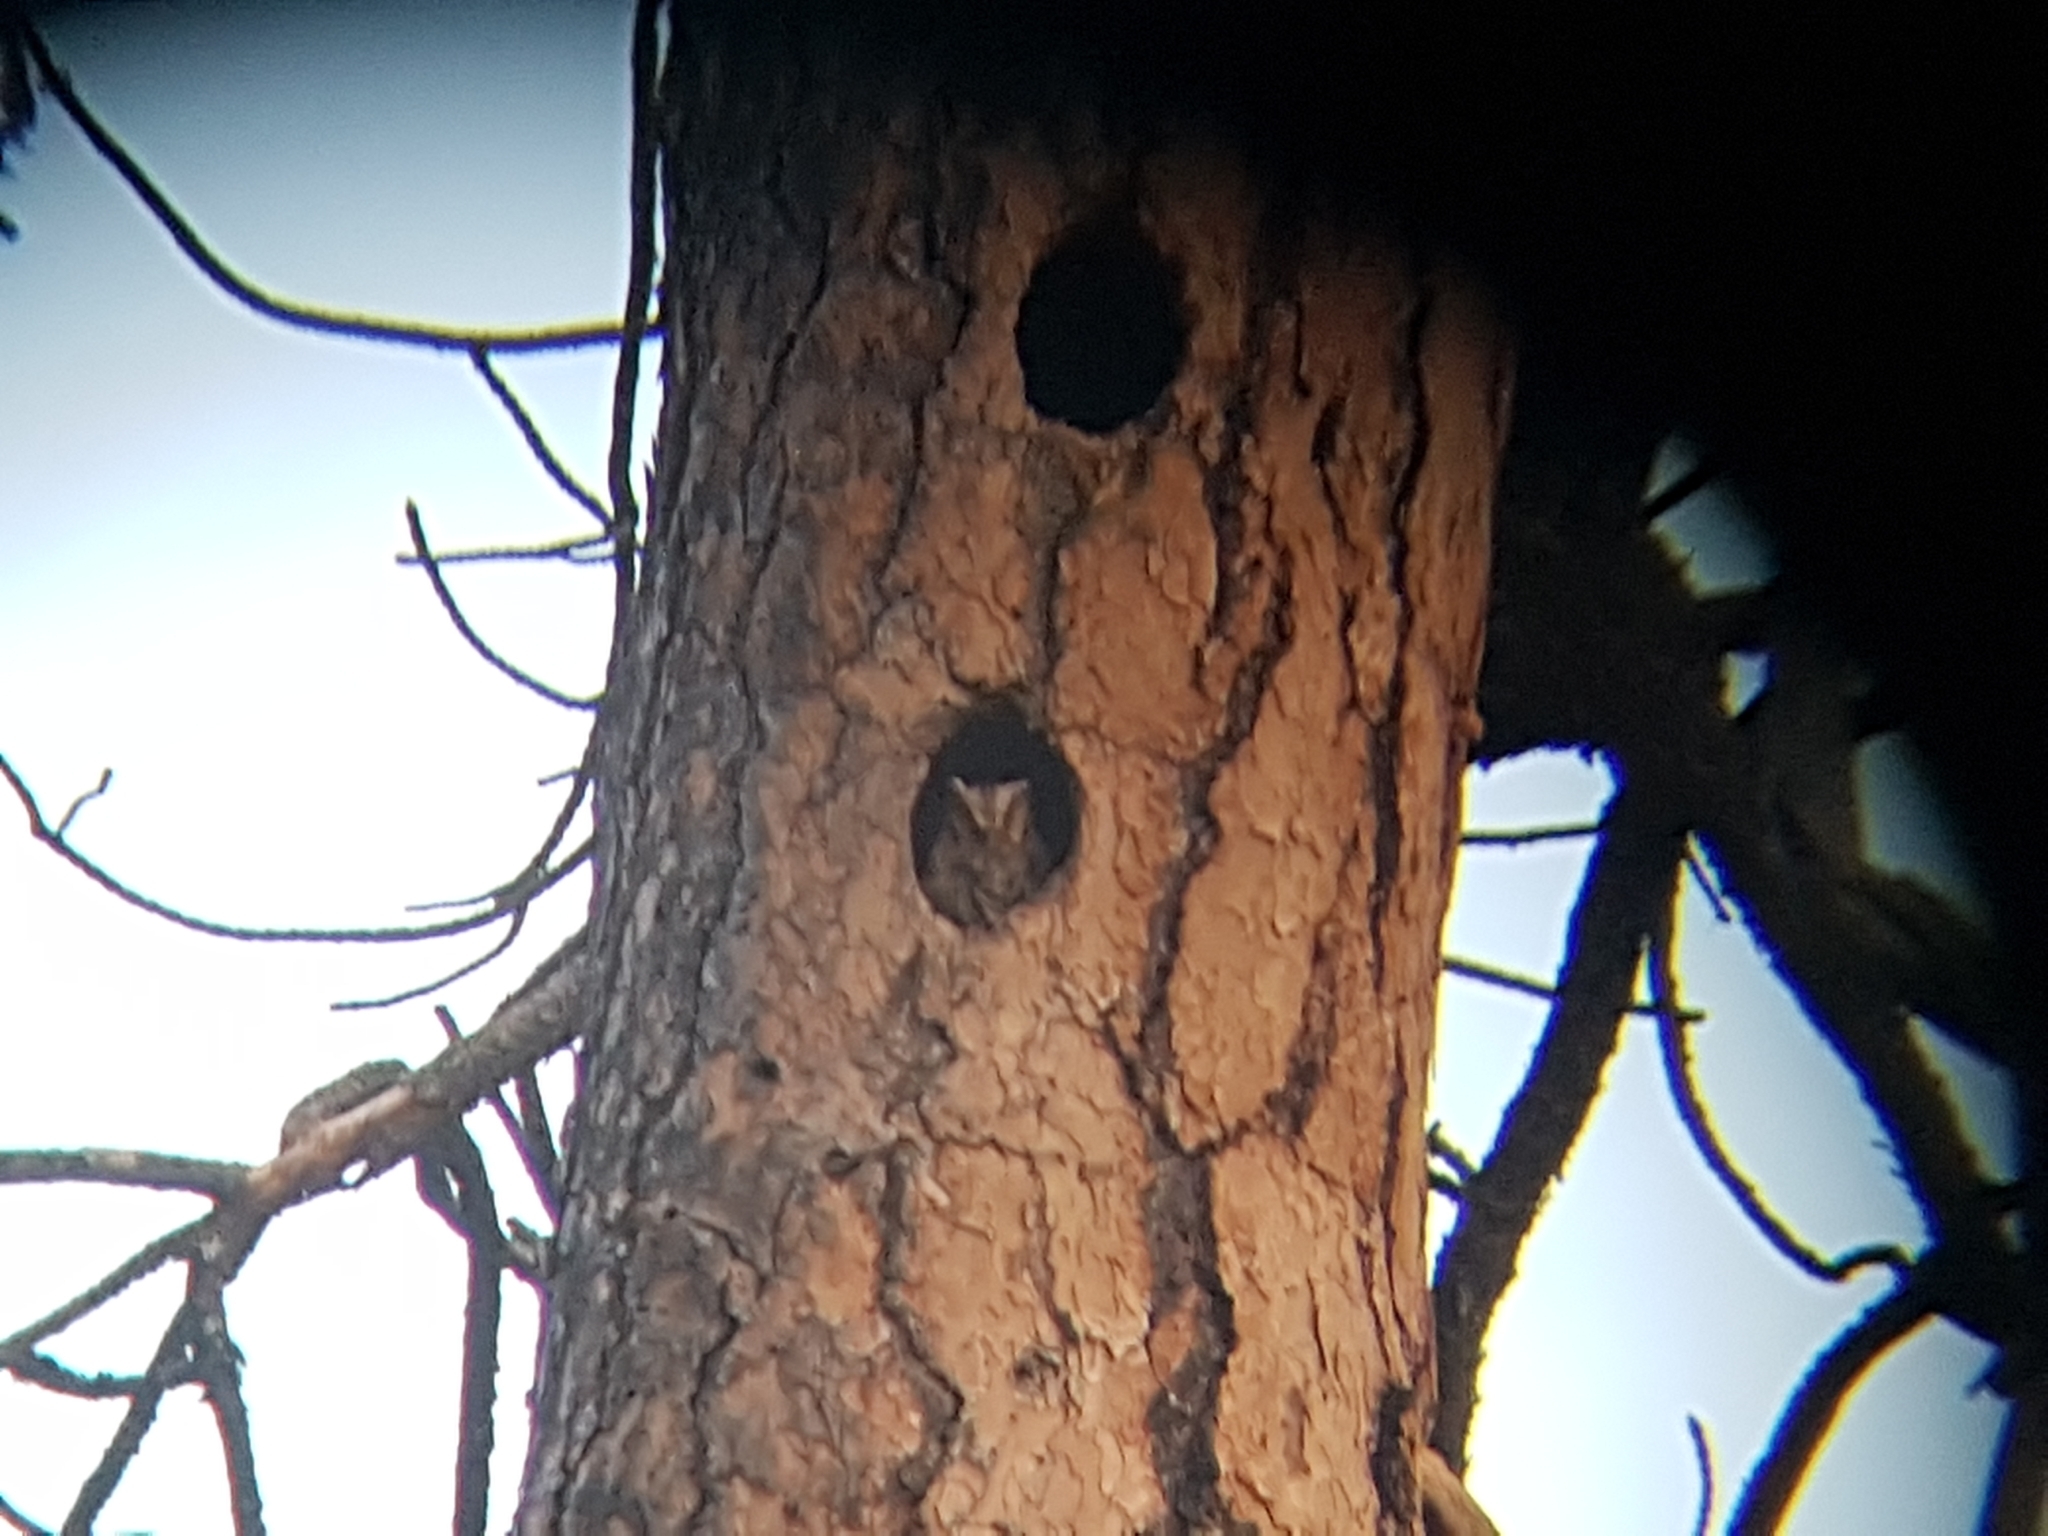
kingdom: Animalia
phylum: Chordata
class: Aves
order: Strigiformes
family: Strigidae
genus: Psiloscops
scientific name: Psiloscops flammeolus
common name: Flammulated owl
